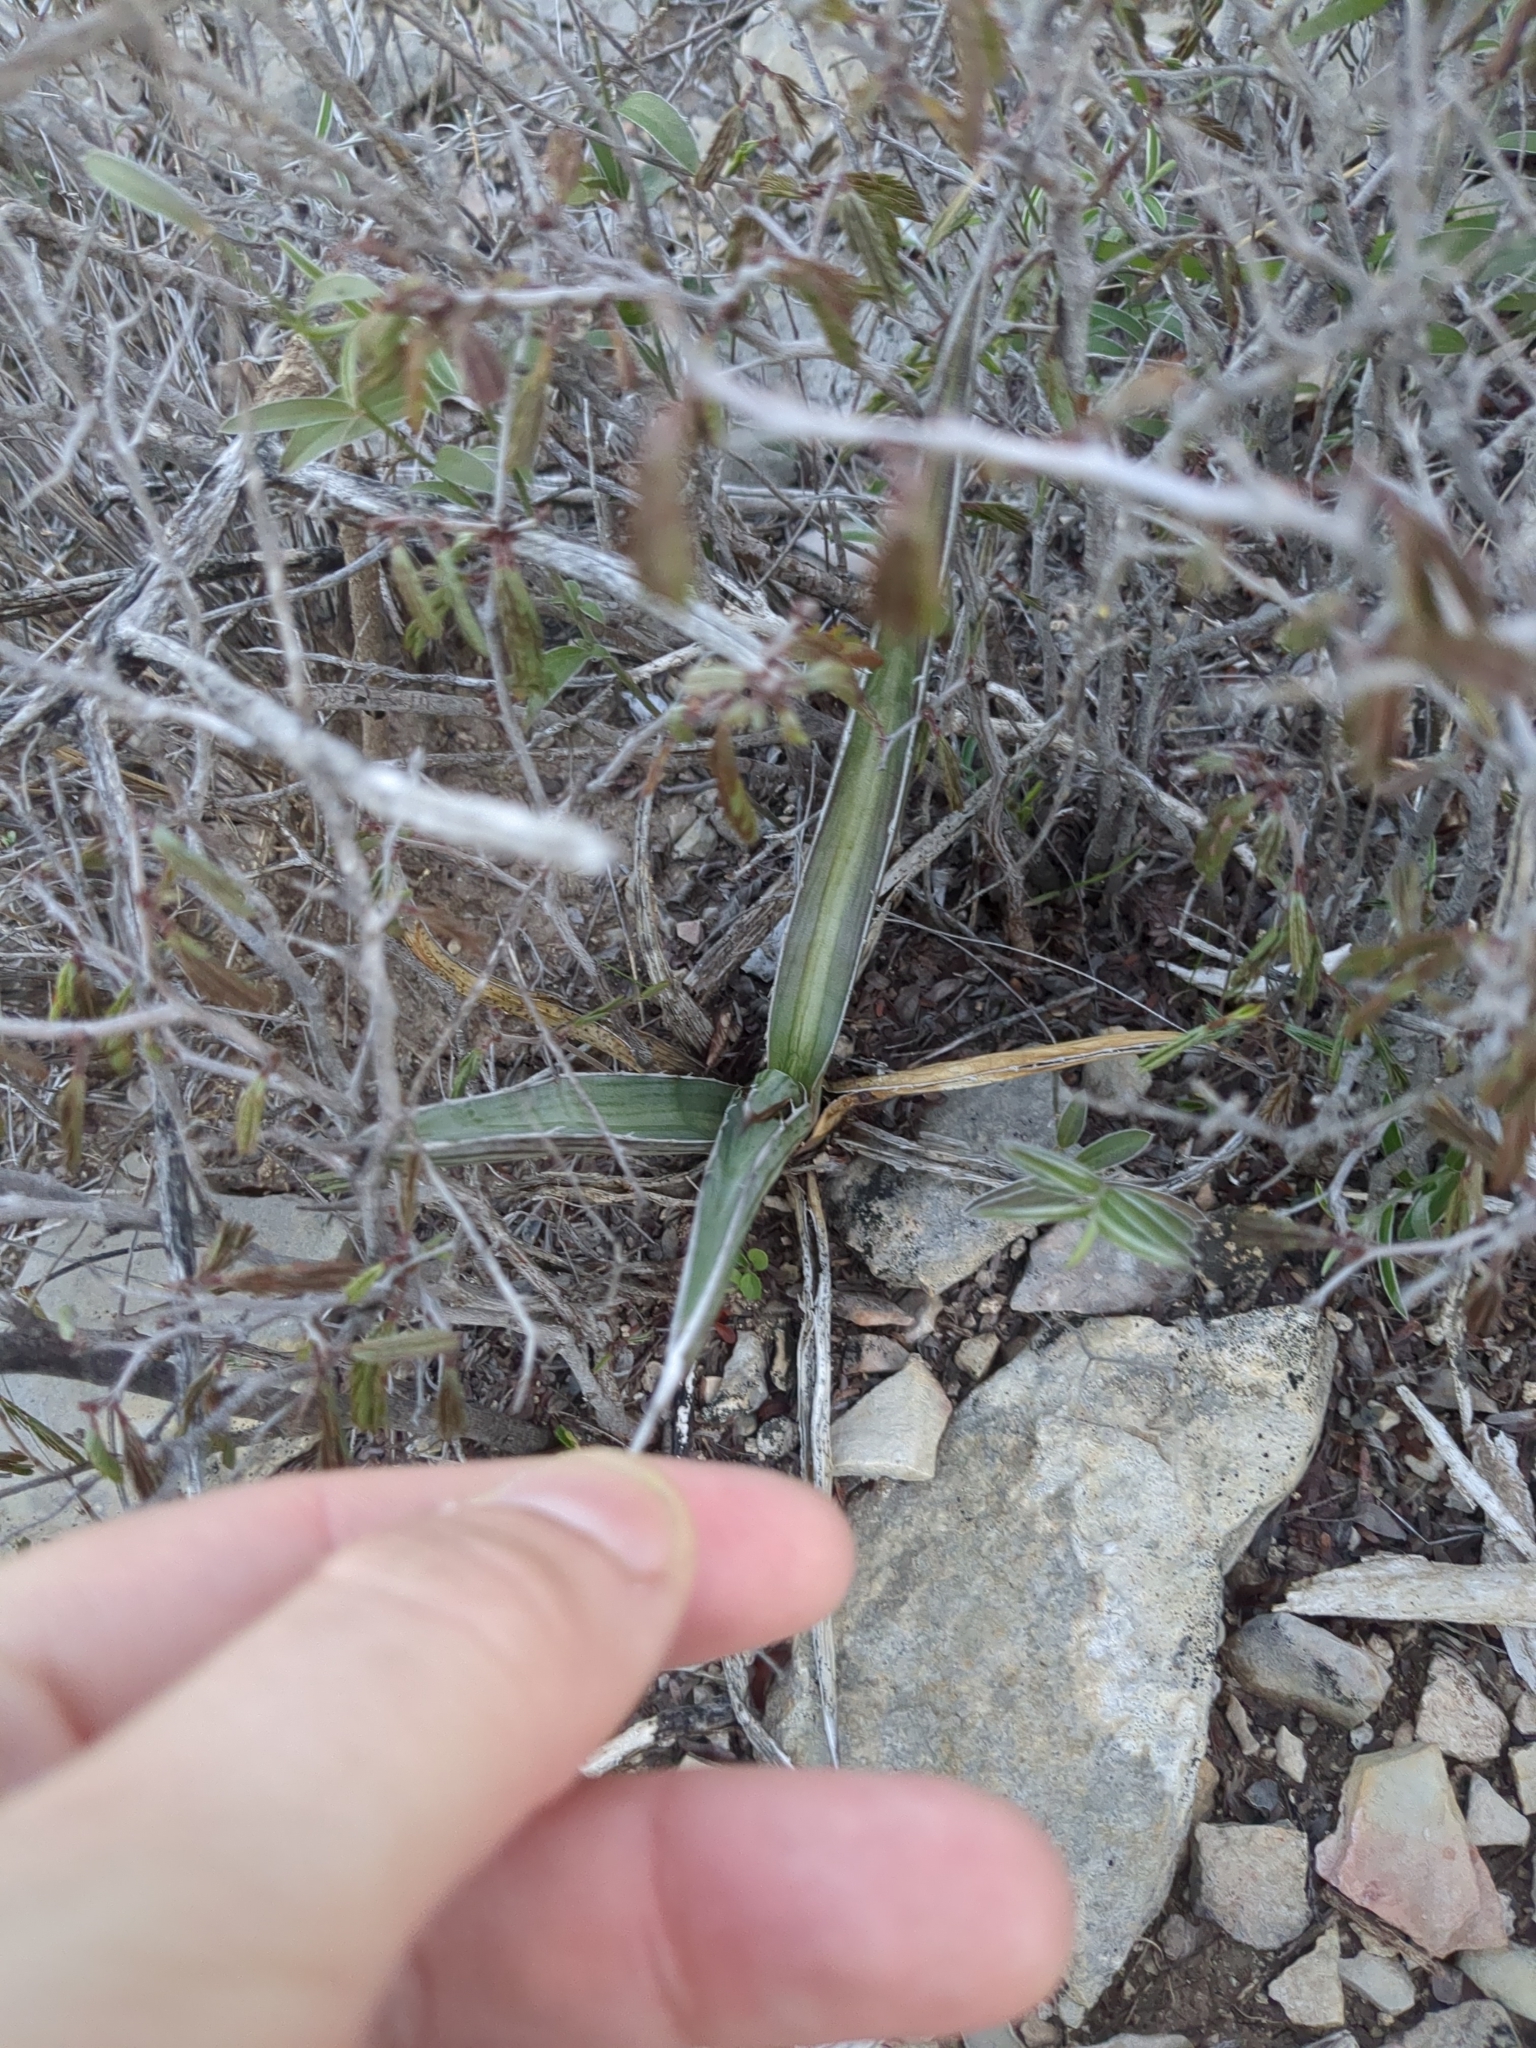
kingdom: Plantae
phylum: Tracheophyta
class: Liliopsida
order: Asparagales
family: Asparagaceae
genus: Agave
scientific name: Agave lechuguilla
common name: Lecheguilla agave
